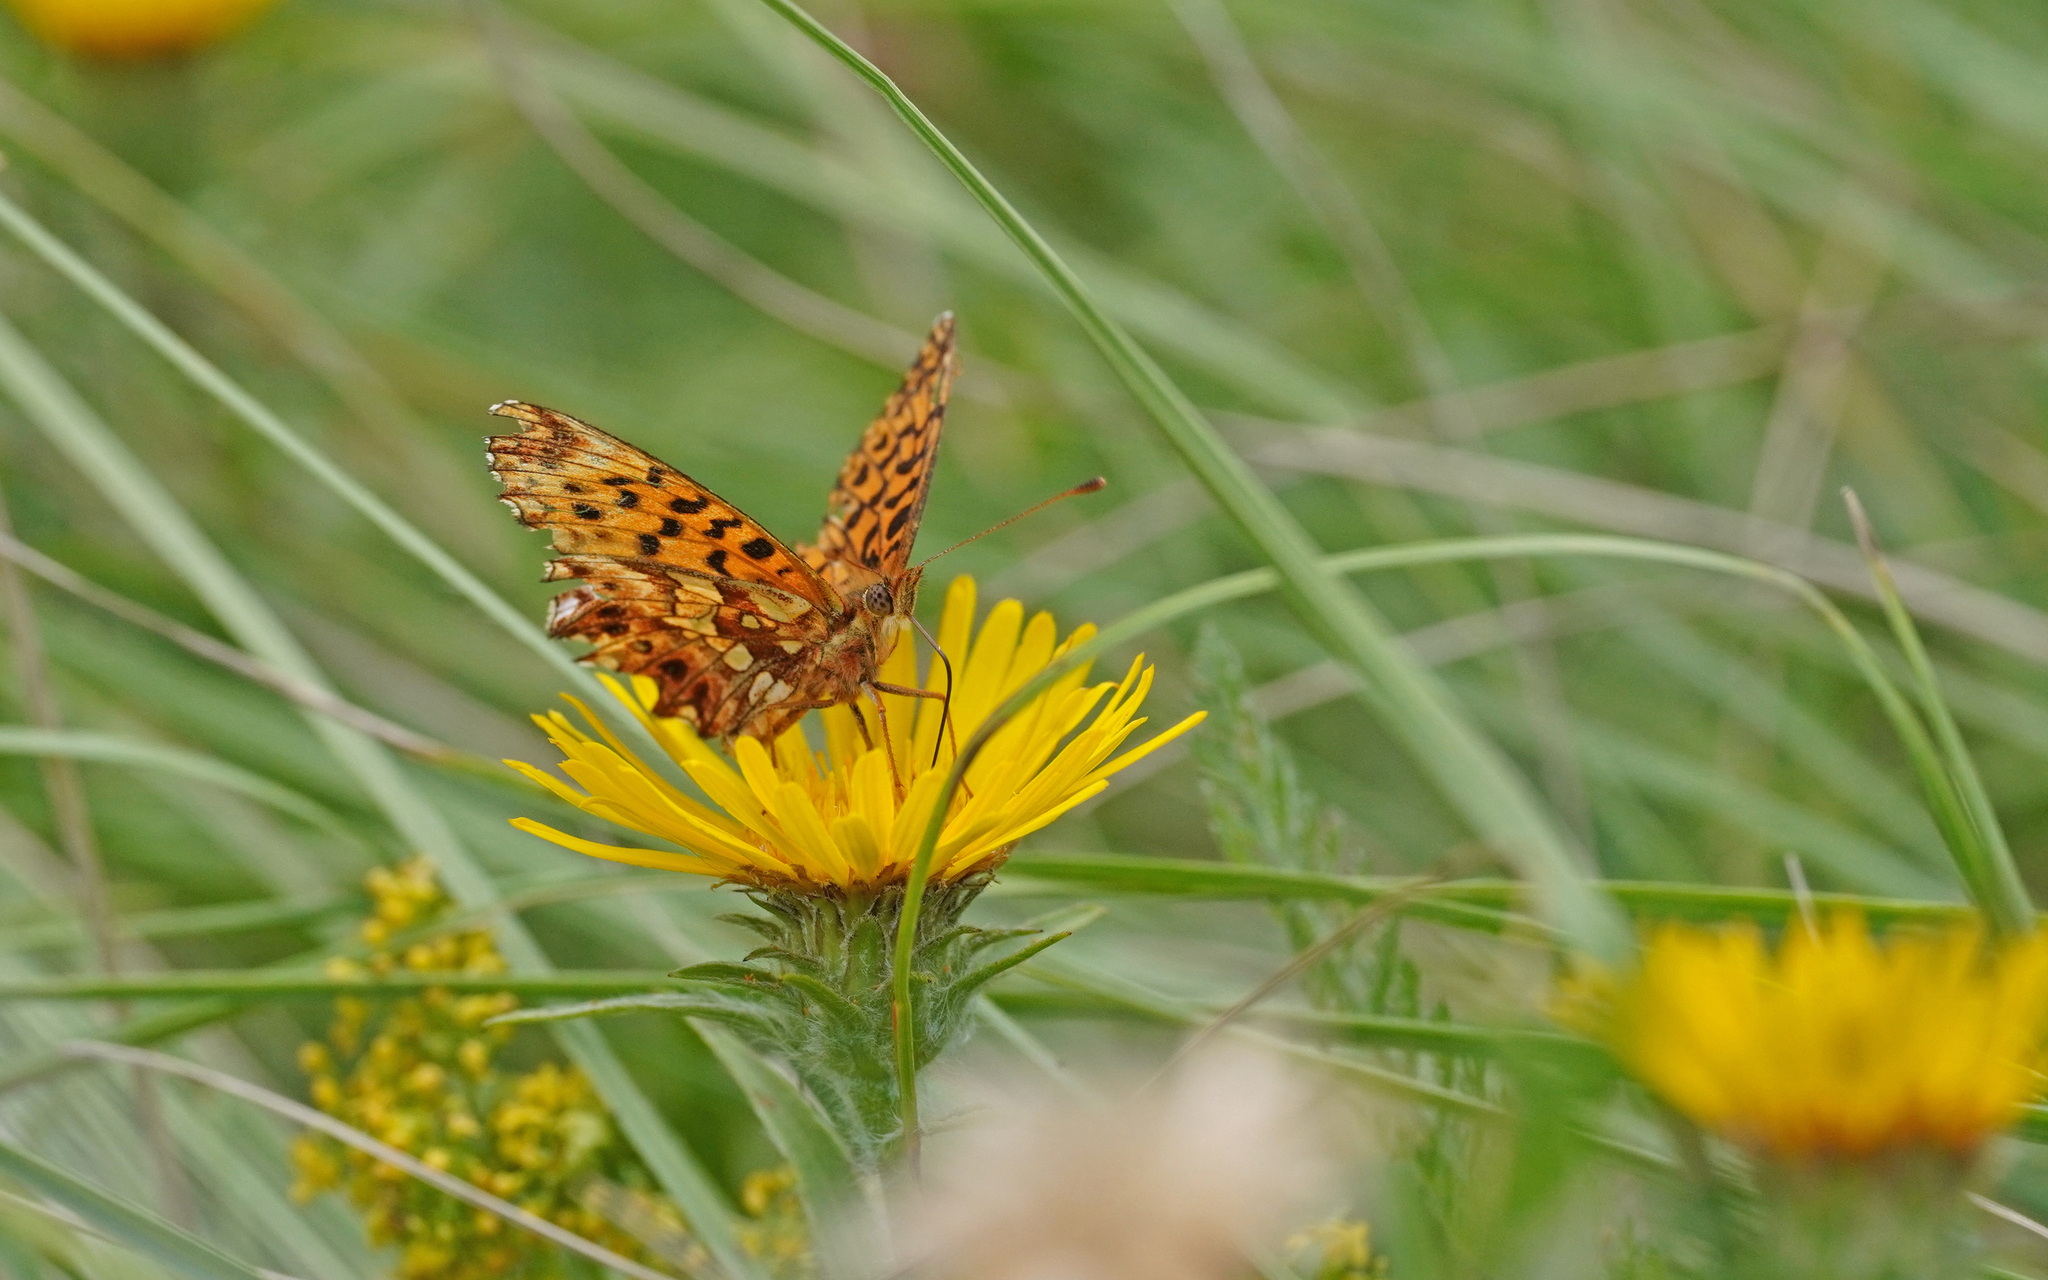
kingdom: Animalia
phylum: Arthropoda
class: Insecta
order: Lepidoptera
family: Nymphalidae
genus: Boloria
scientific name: Boloria dia
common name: Weaver's fritillary
